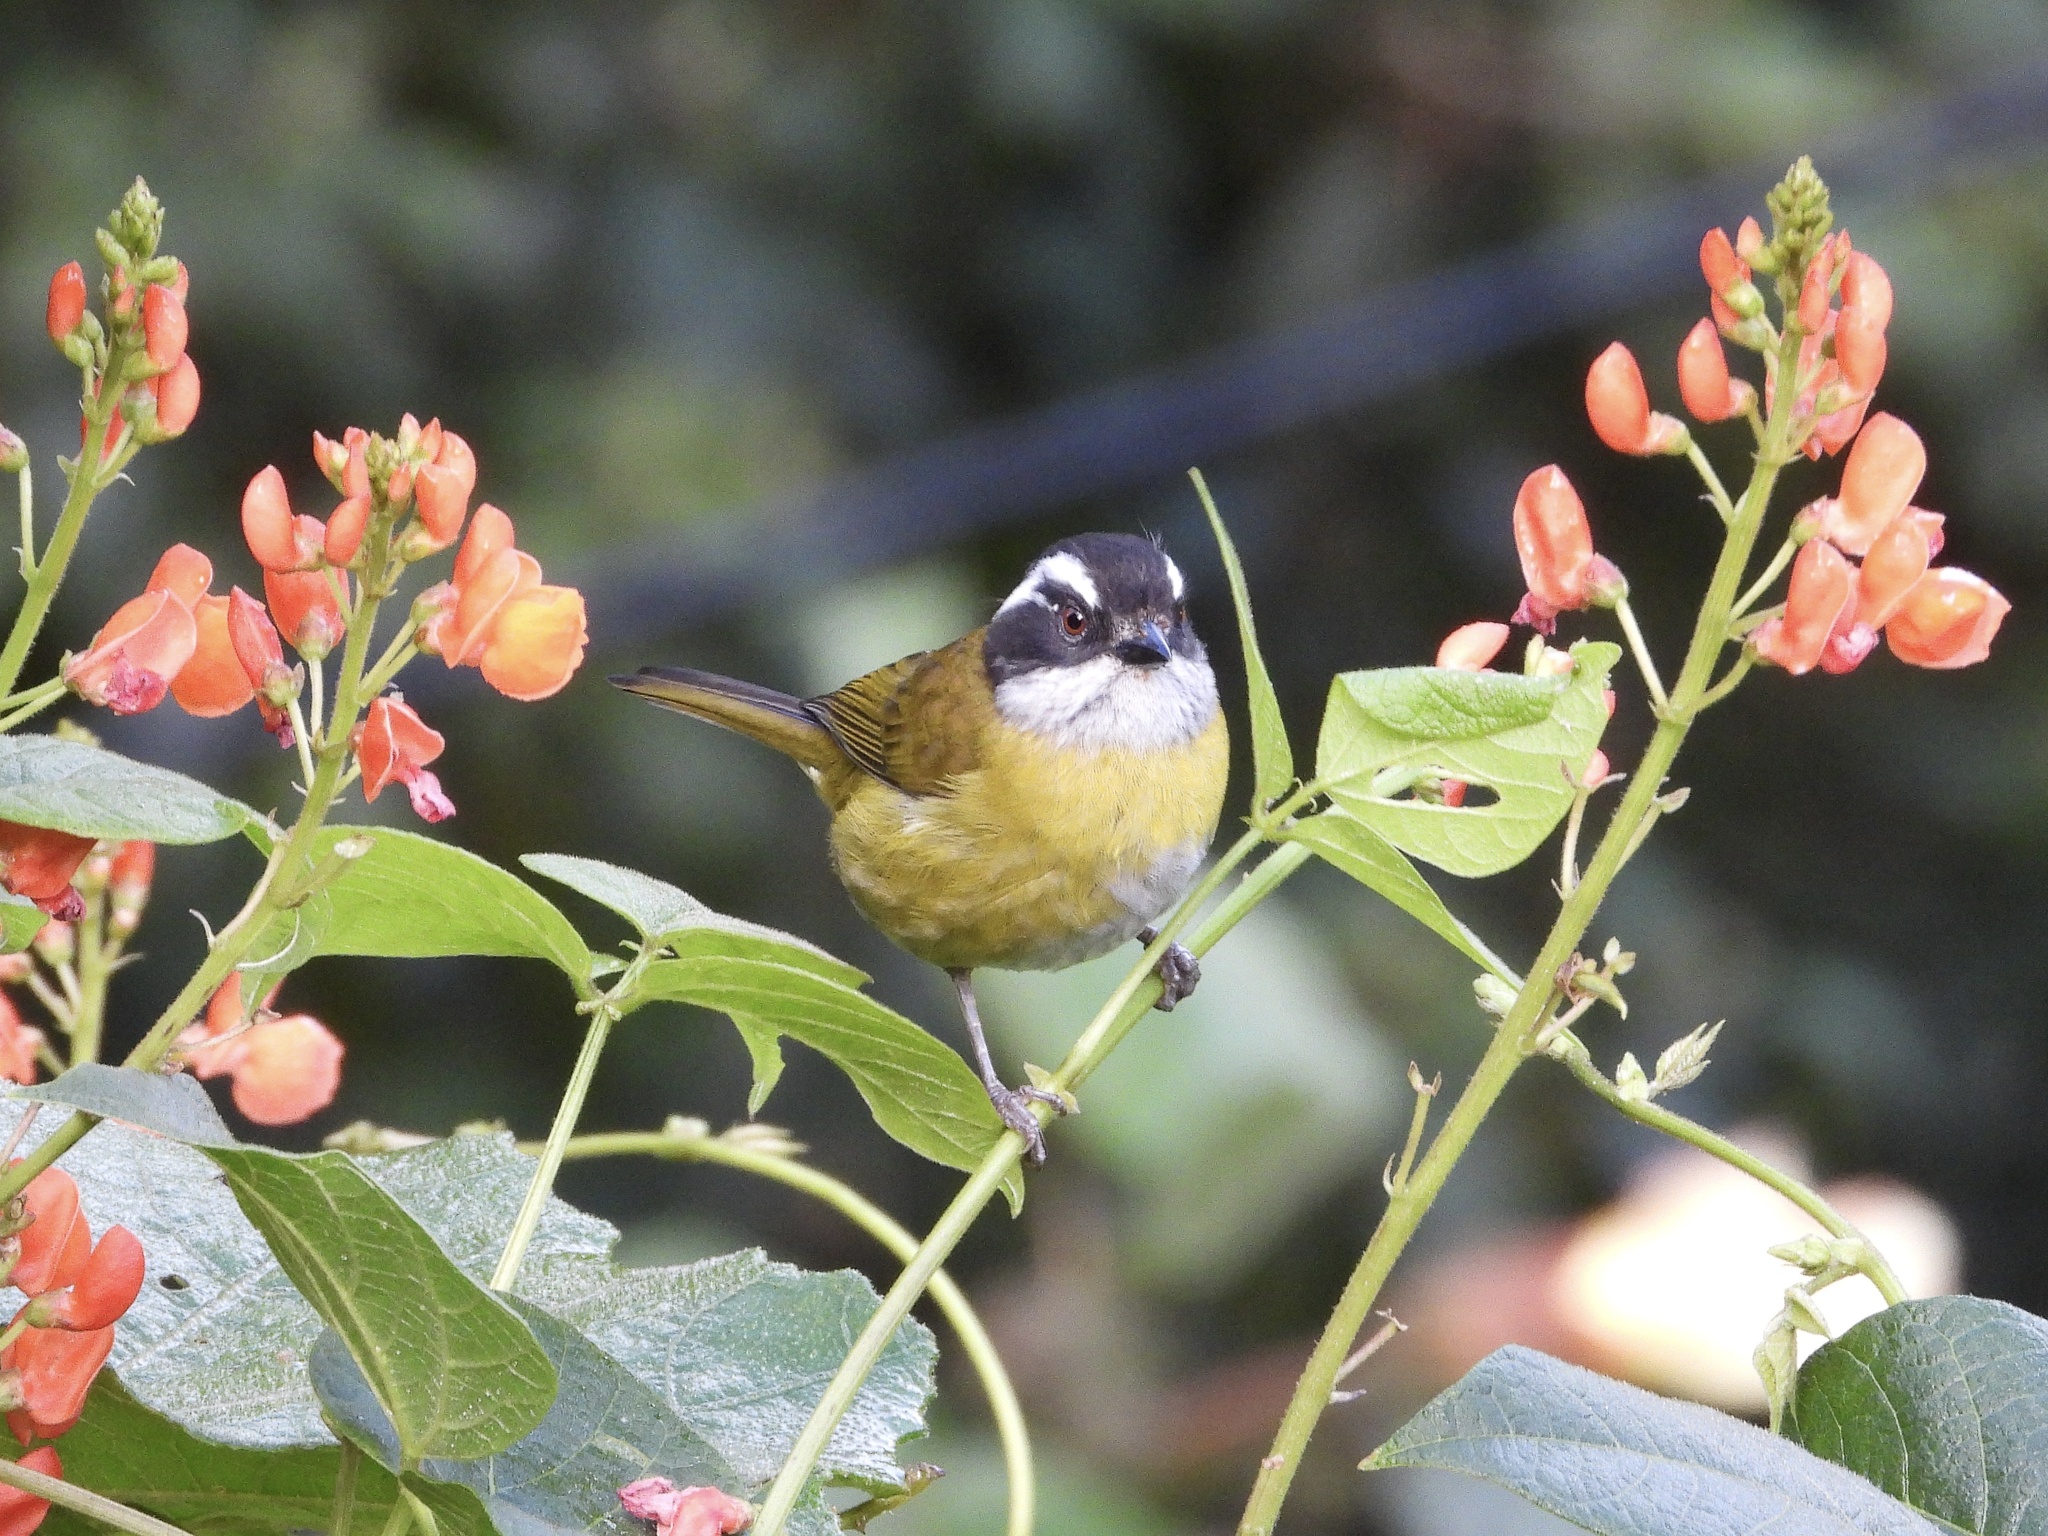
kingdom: Animalia
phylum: Chordata
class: Aves
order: Passeriformes
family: Passerellidae
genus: Chlorospingus
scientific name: Chlorospingus pileatus
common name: Sooty-capped bush-tanager
